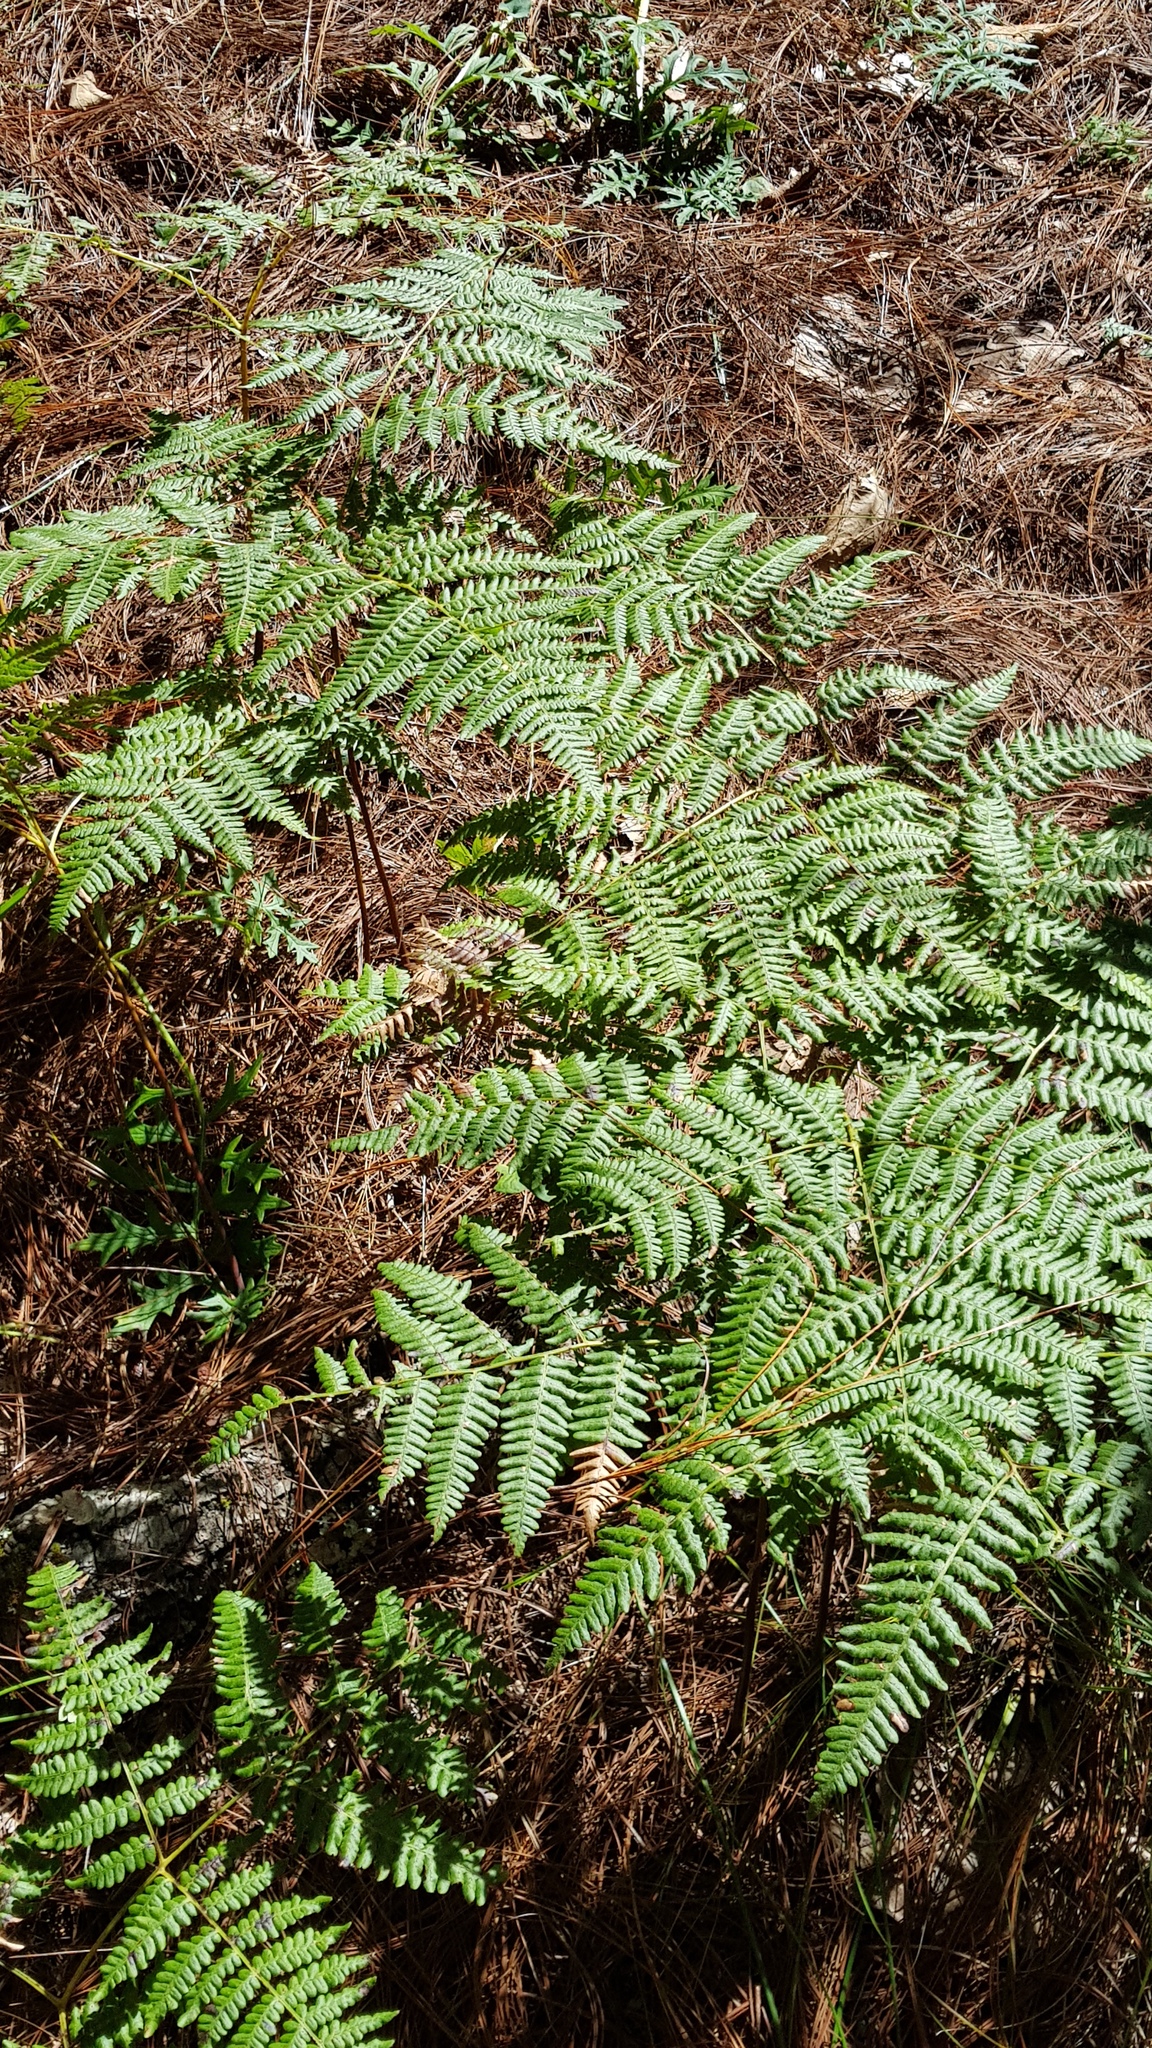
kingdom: Plantae
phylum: Tracheophyta
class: Polypodiopsida
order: Polypodiales
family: Dennstaedtiaceae
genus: Pteridium
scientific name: Pteridium aquilinum
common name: Bracken
